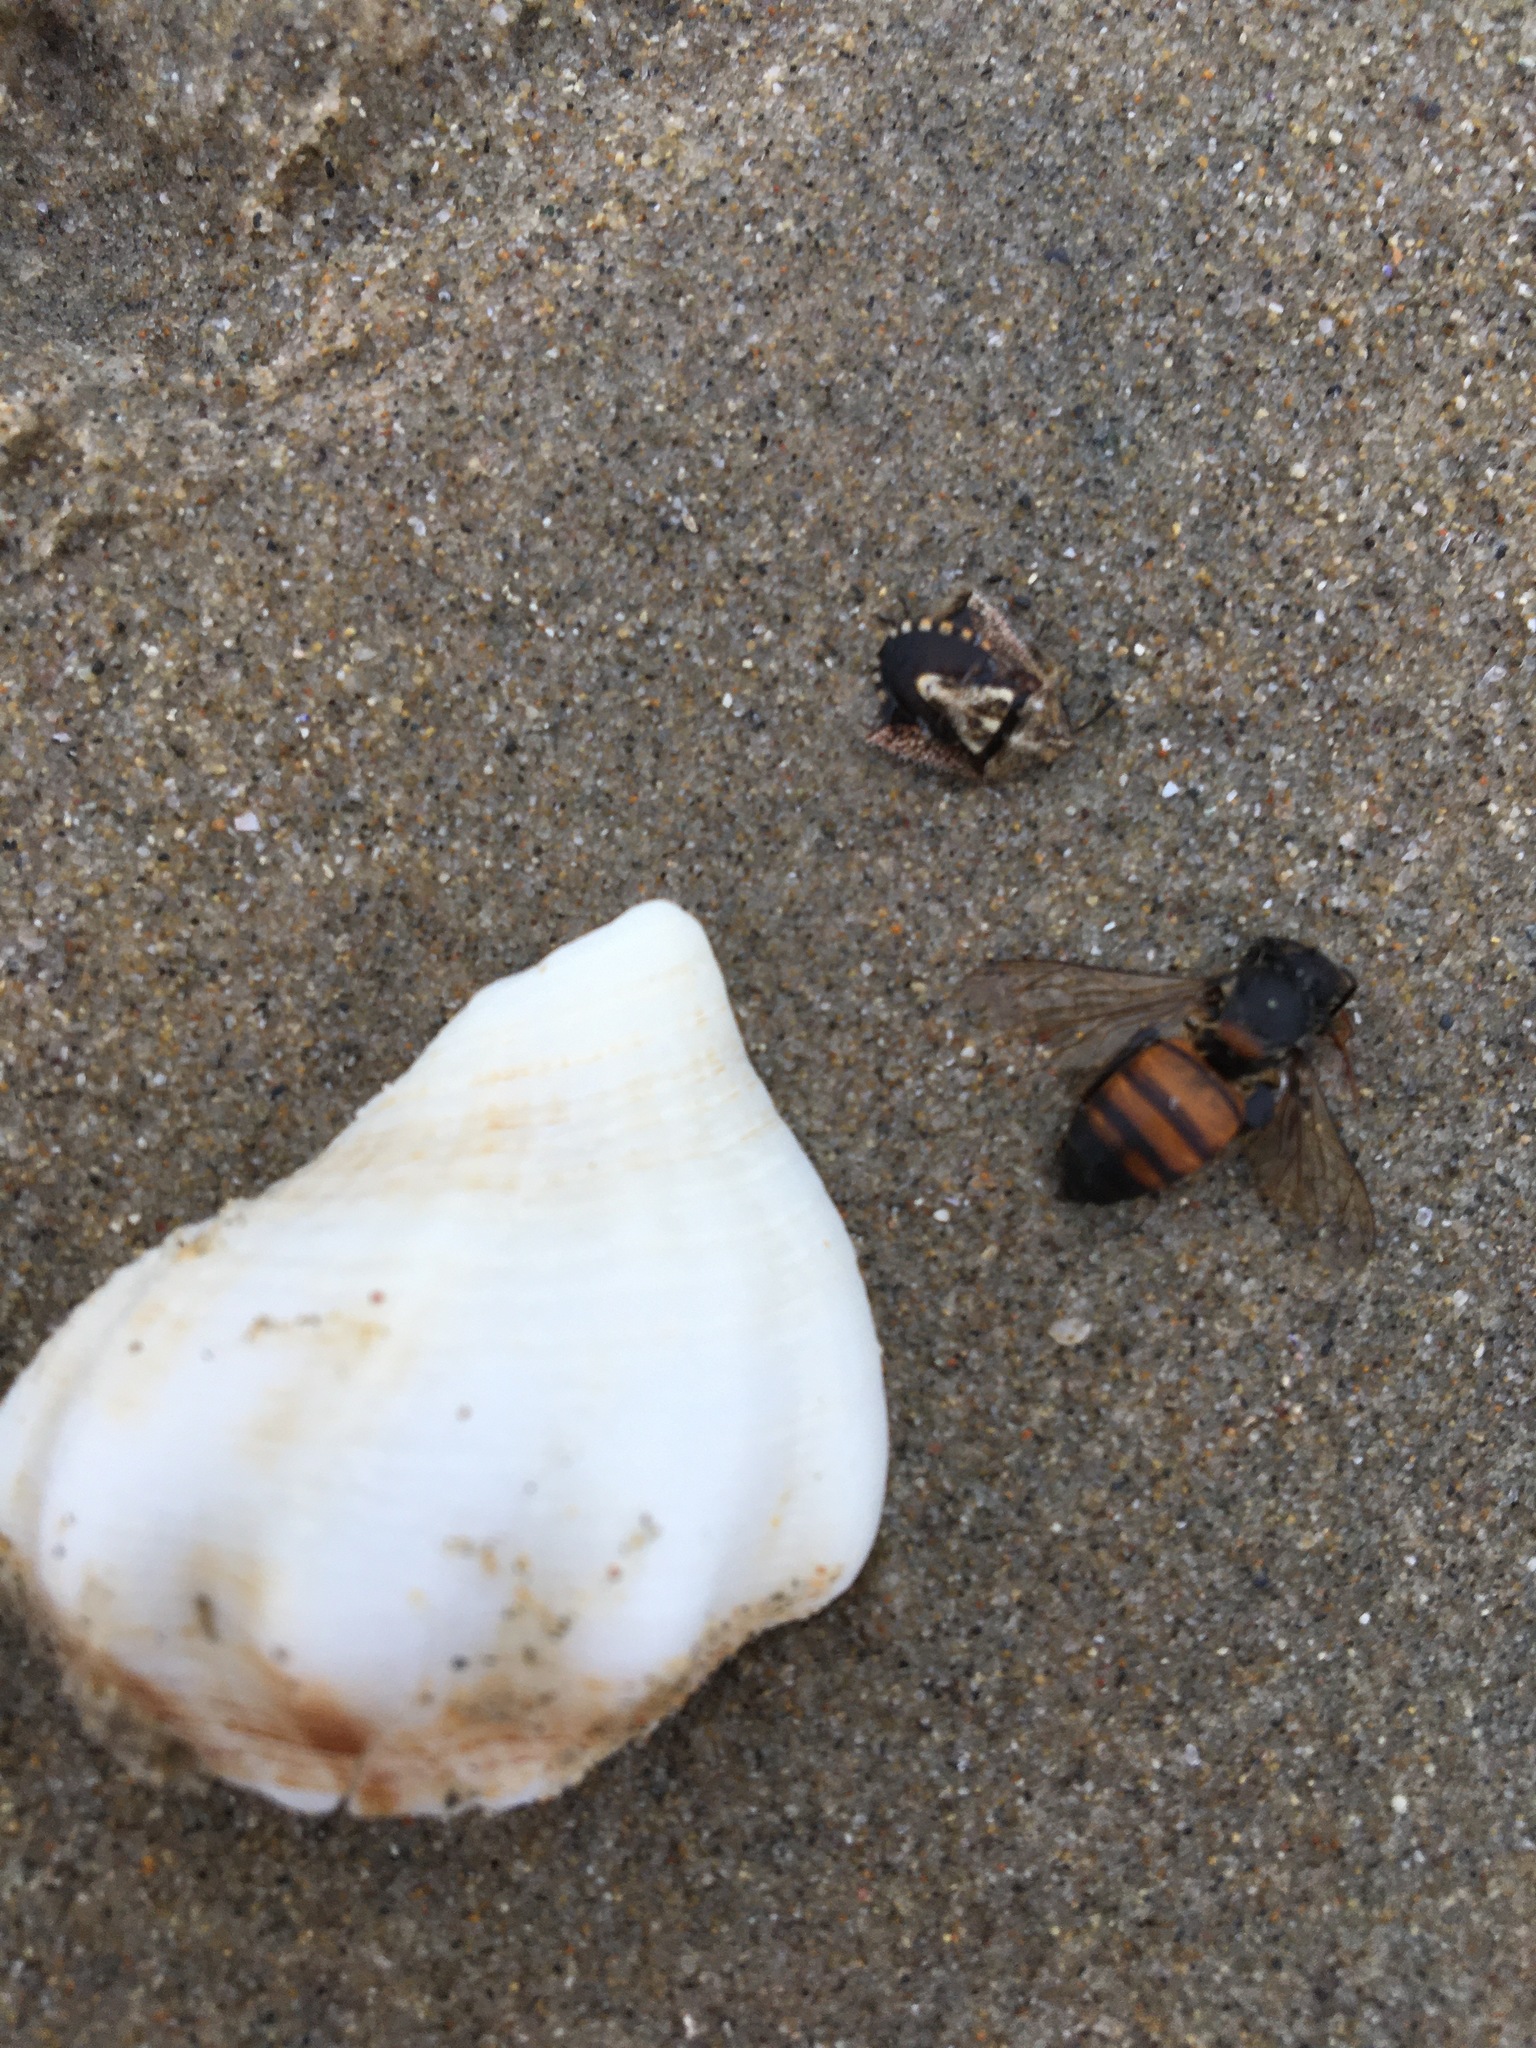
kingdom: Animalia
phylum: Mollusca
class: Gastropoda
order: Neogastropoda
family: Austrosiphonidae
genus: Kelletia
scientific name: Kelletia kelletii
